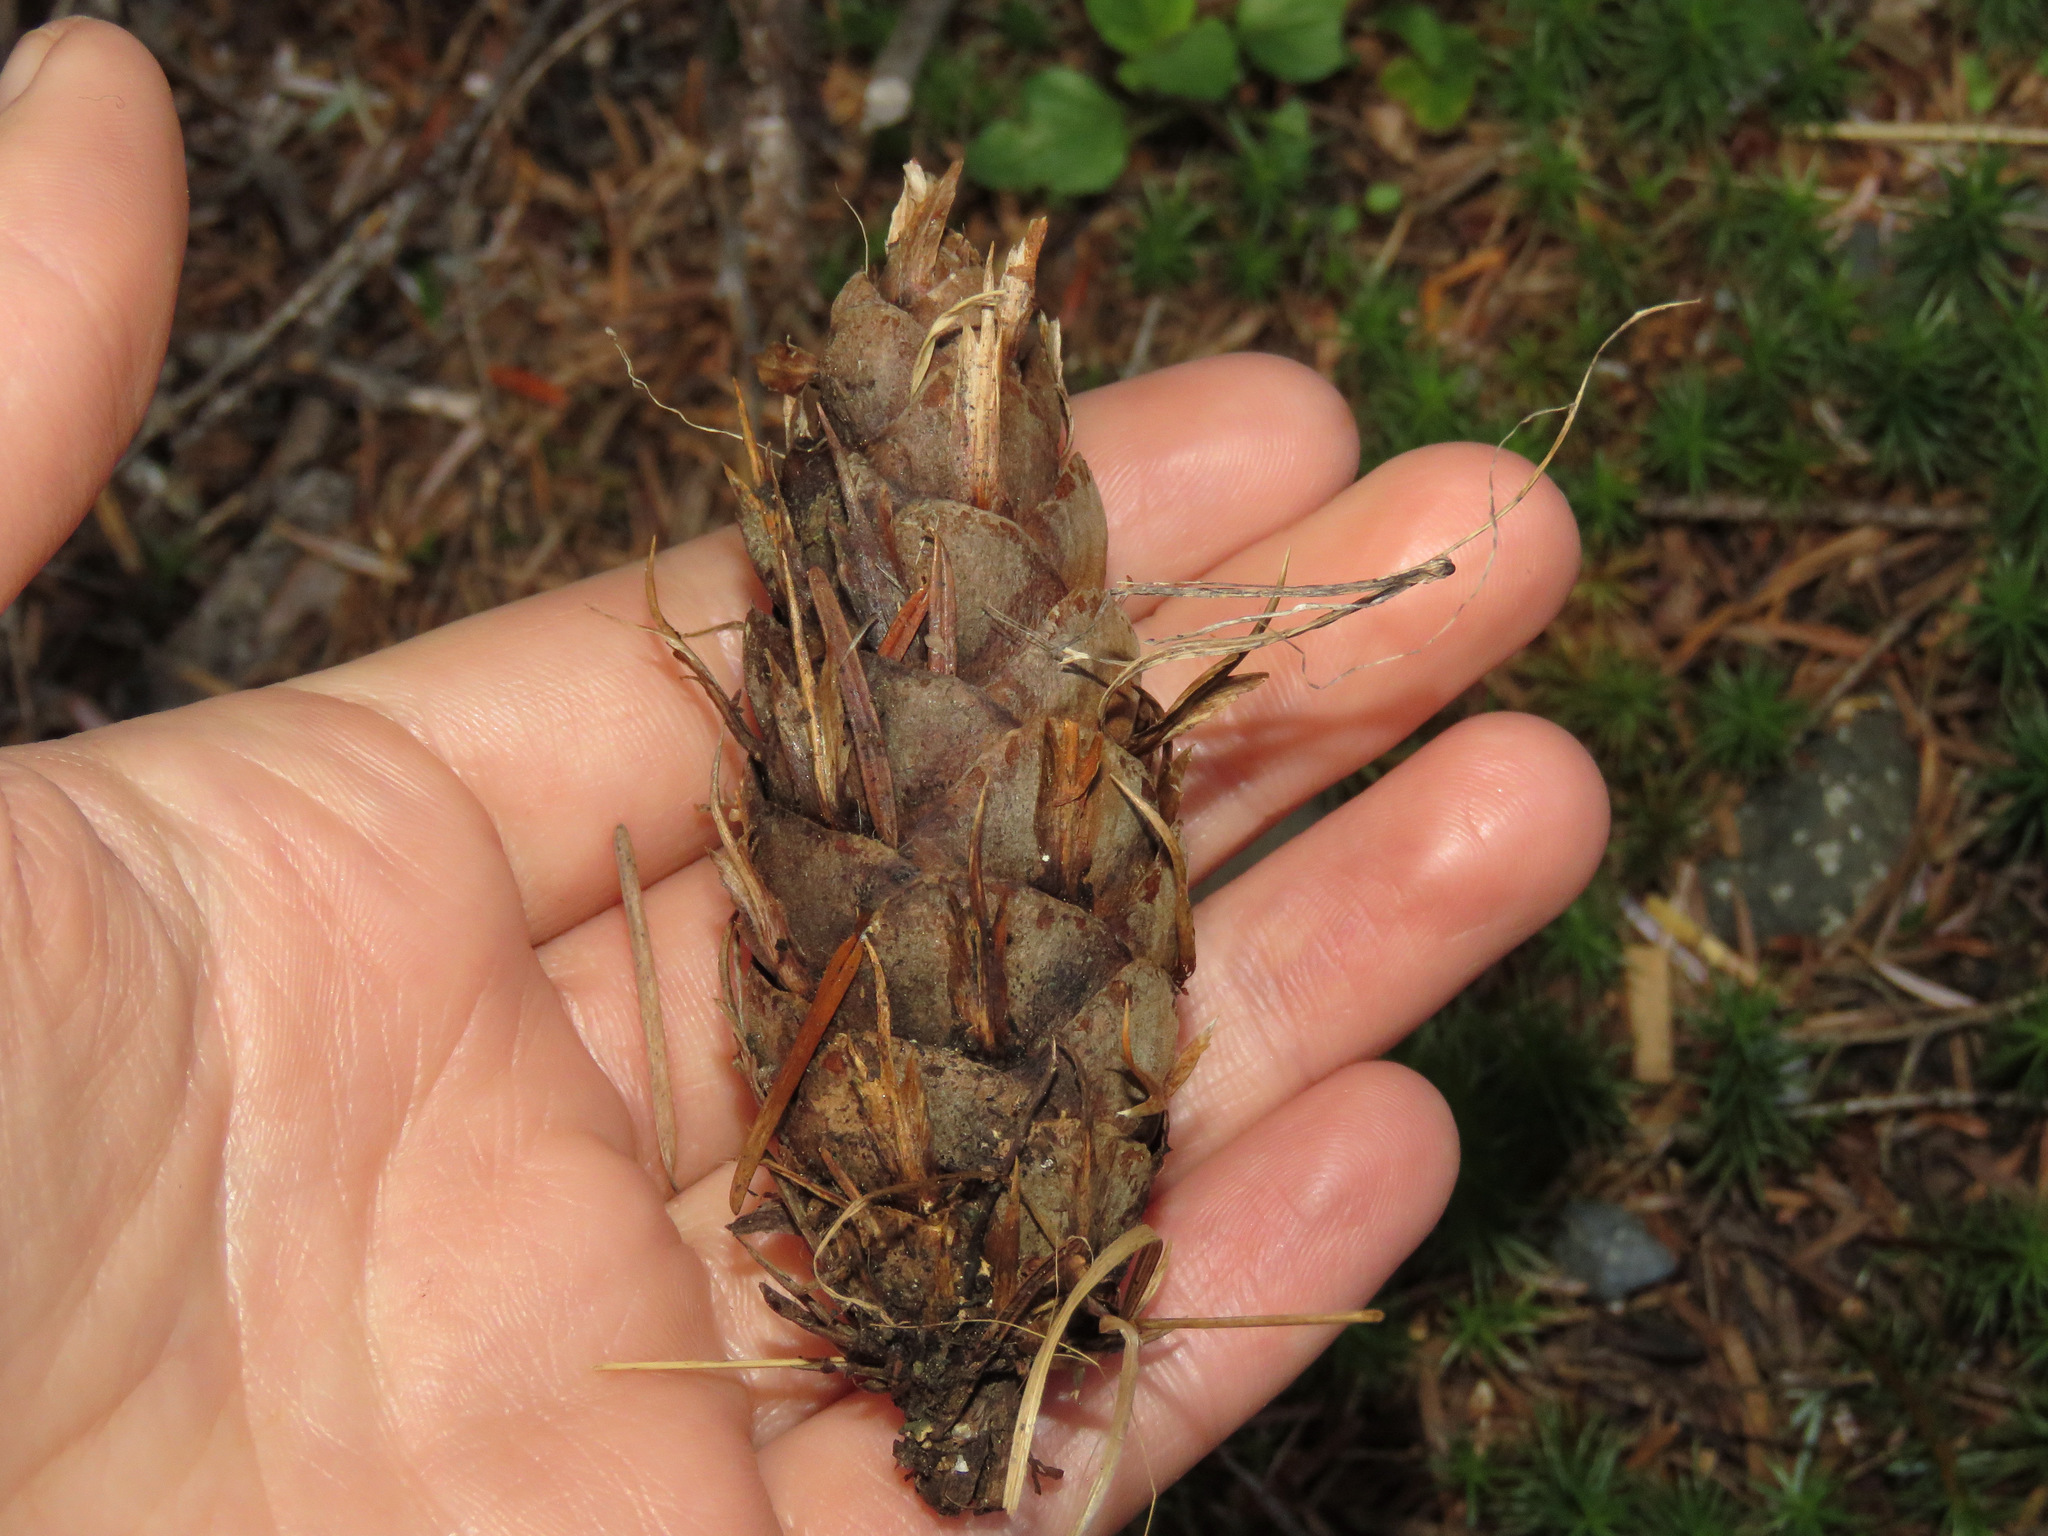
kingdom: Plantae
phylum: Tracheophyta
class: Pinopsida
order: Pinales
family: Pinaceae
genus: Pseudotsuga
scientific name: Pseudotsuga menziesii
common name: Douglas fir
